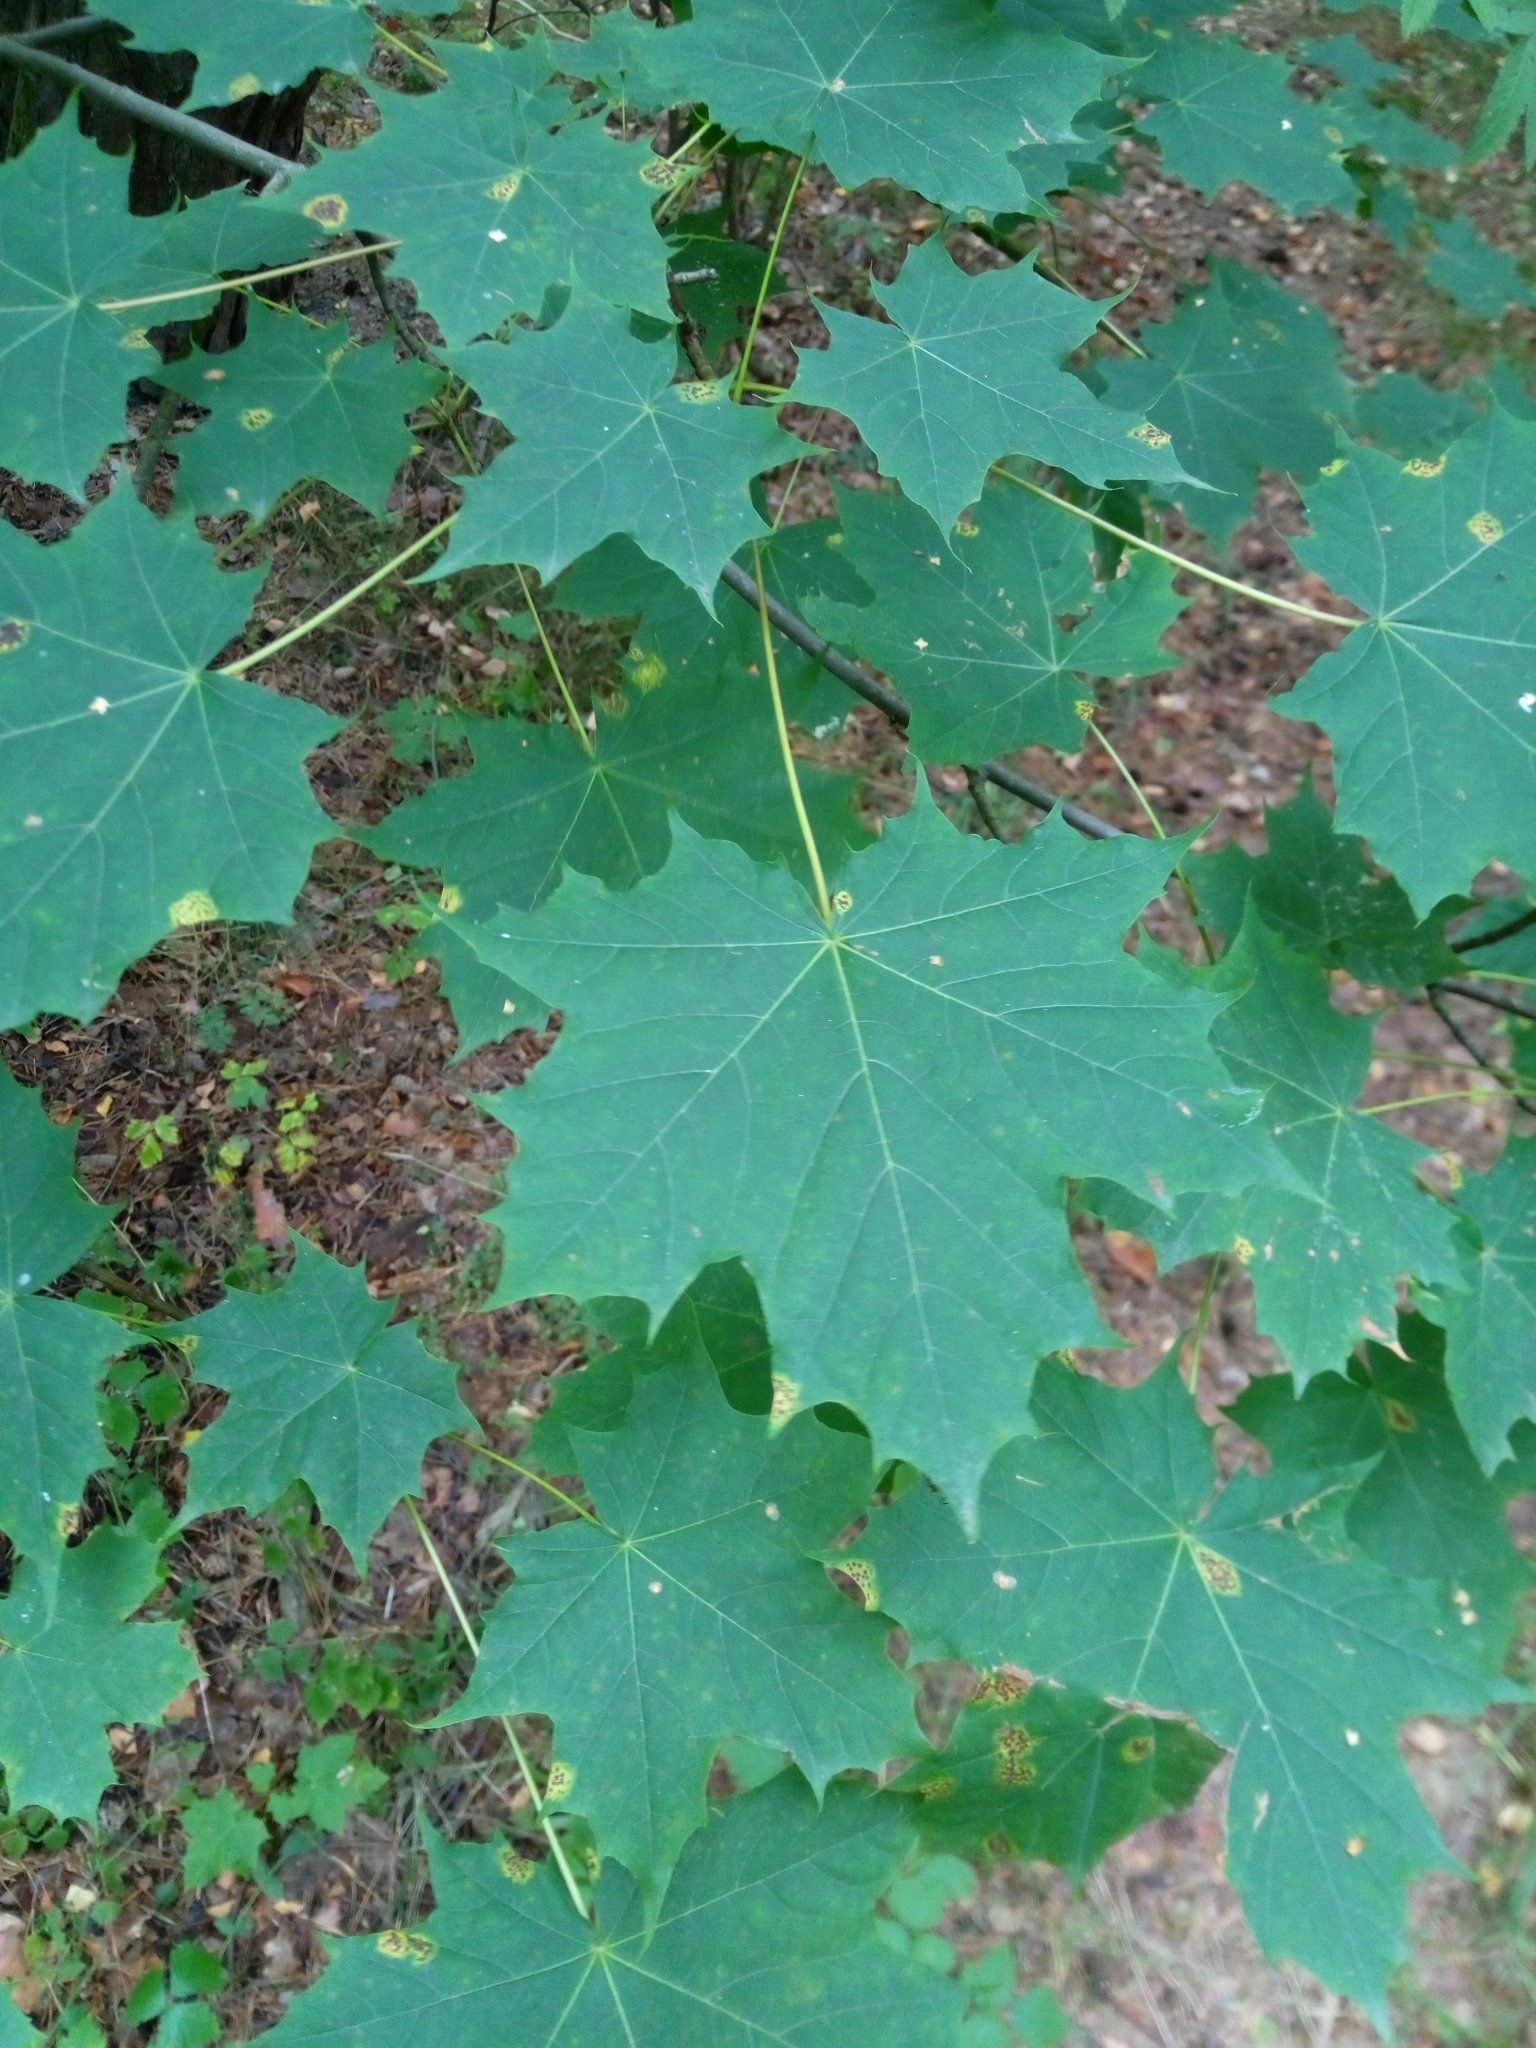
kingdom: Plantae
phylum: Tracheophyta
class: Magnoliopsida
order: Sapindales
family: Sapindaceae
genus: Acer
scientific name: Acer platanoides
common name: Norway maple
